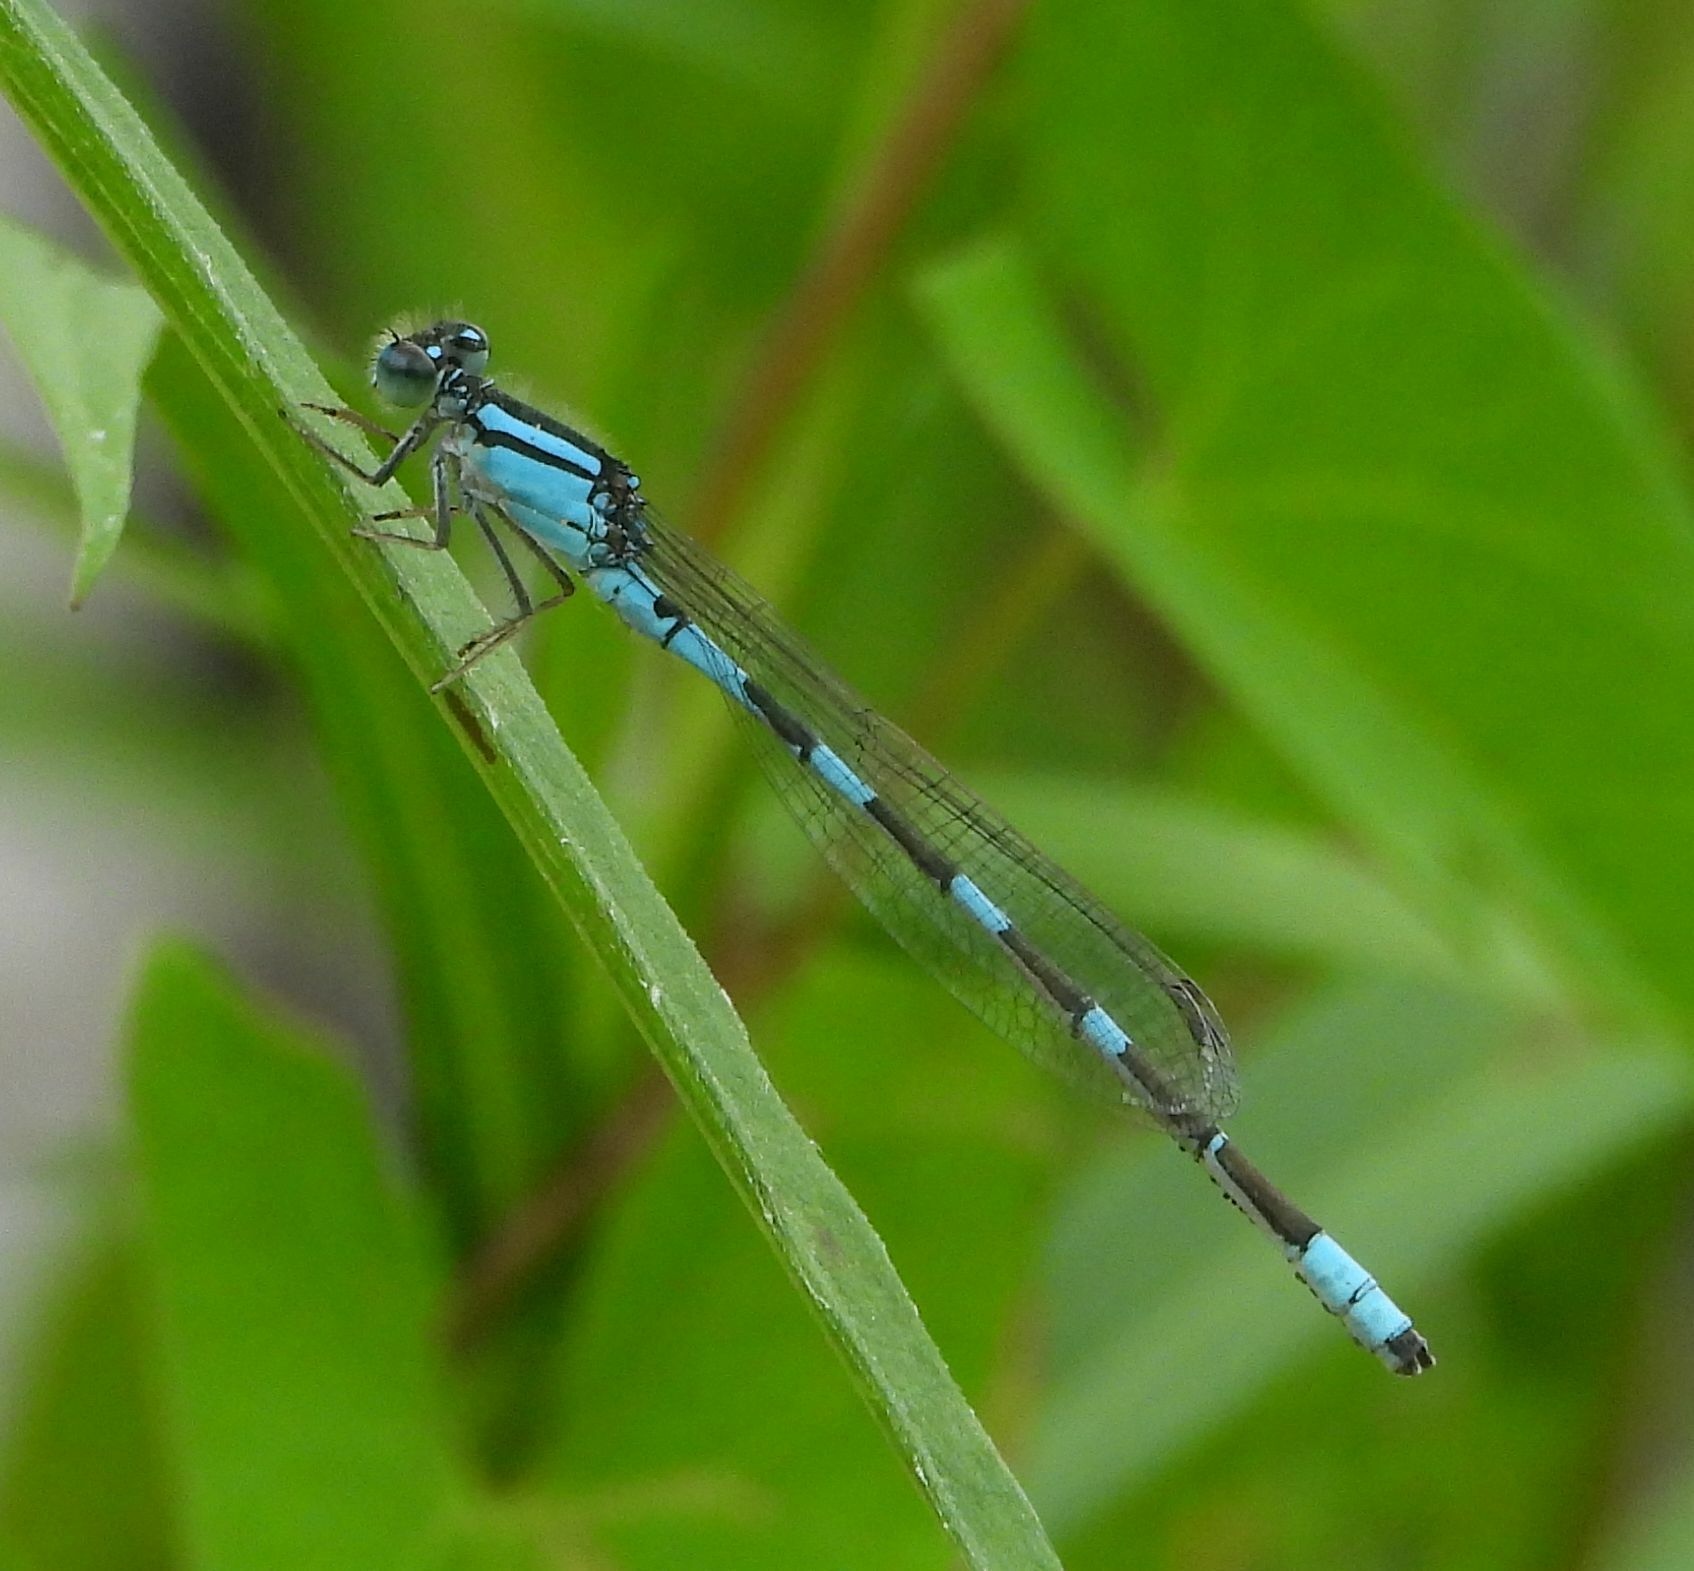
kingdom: Animalia
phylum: Arthropoda
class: Insecta
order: Odonata
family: Coenagrionidae
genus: Enallagma
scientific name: Enallagma carunculatum
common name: Tule bluet
